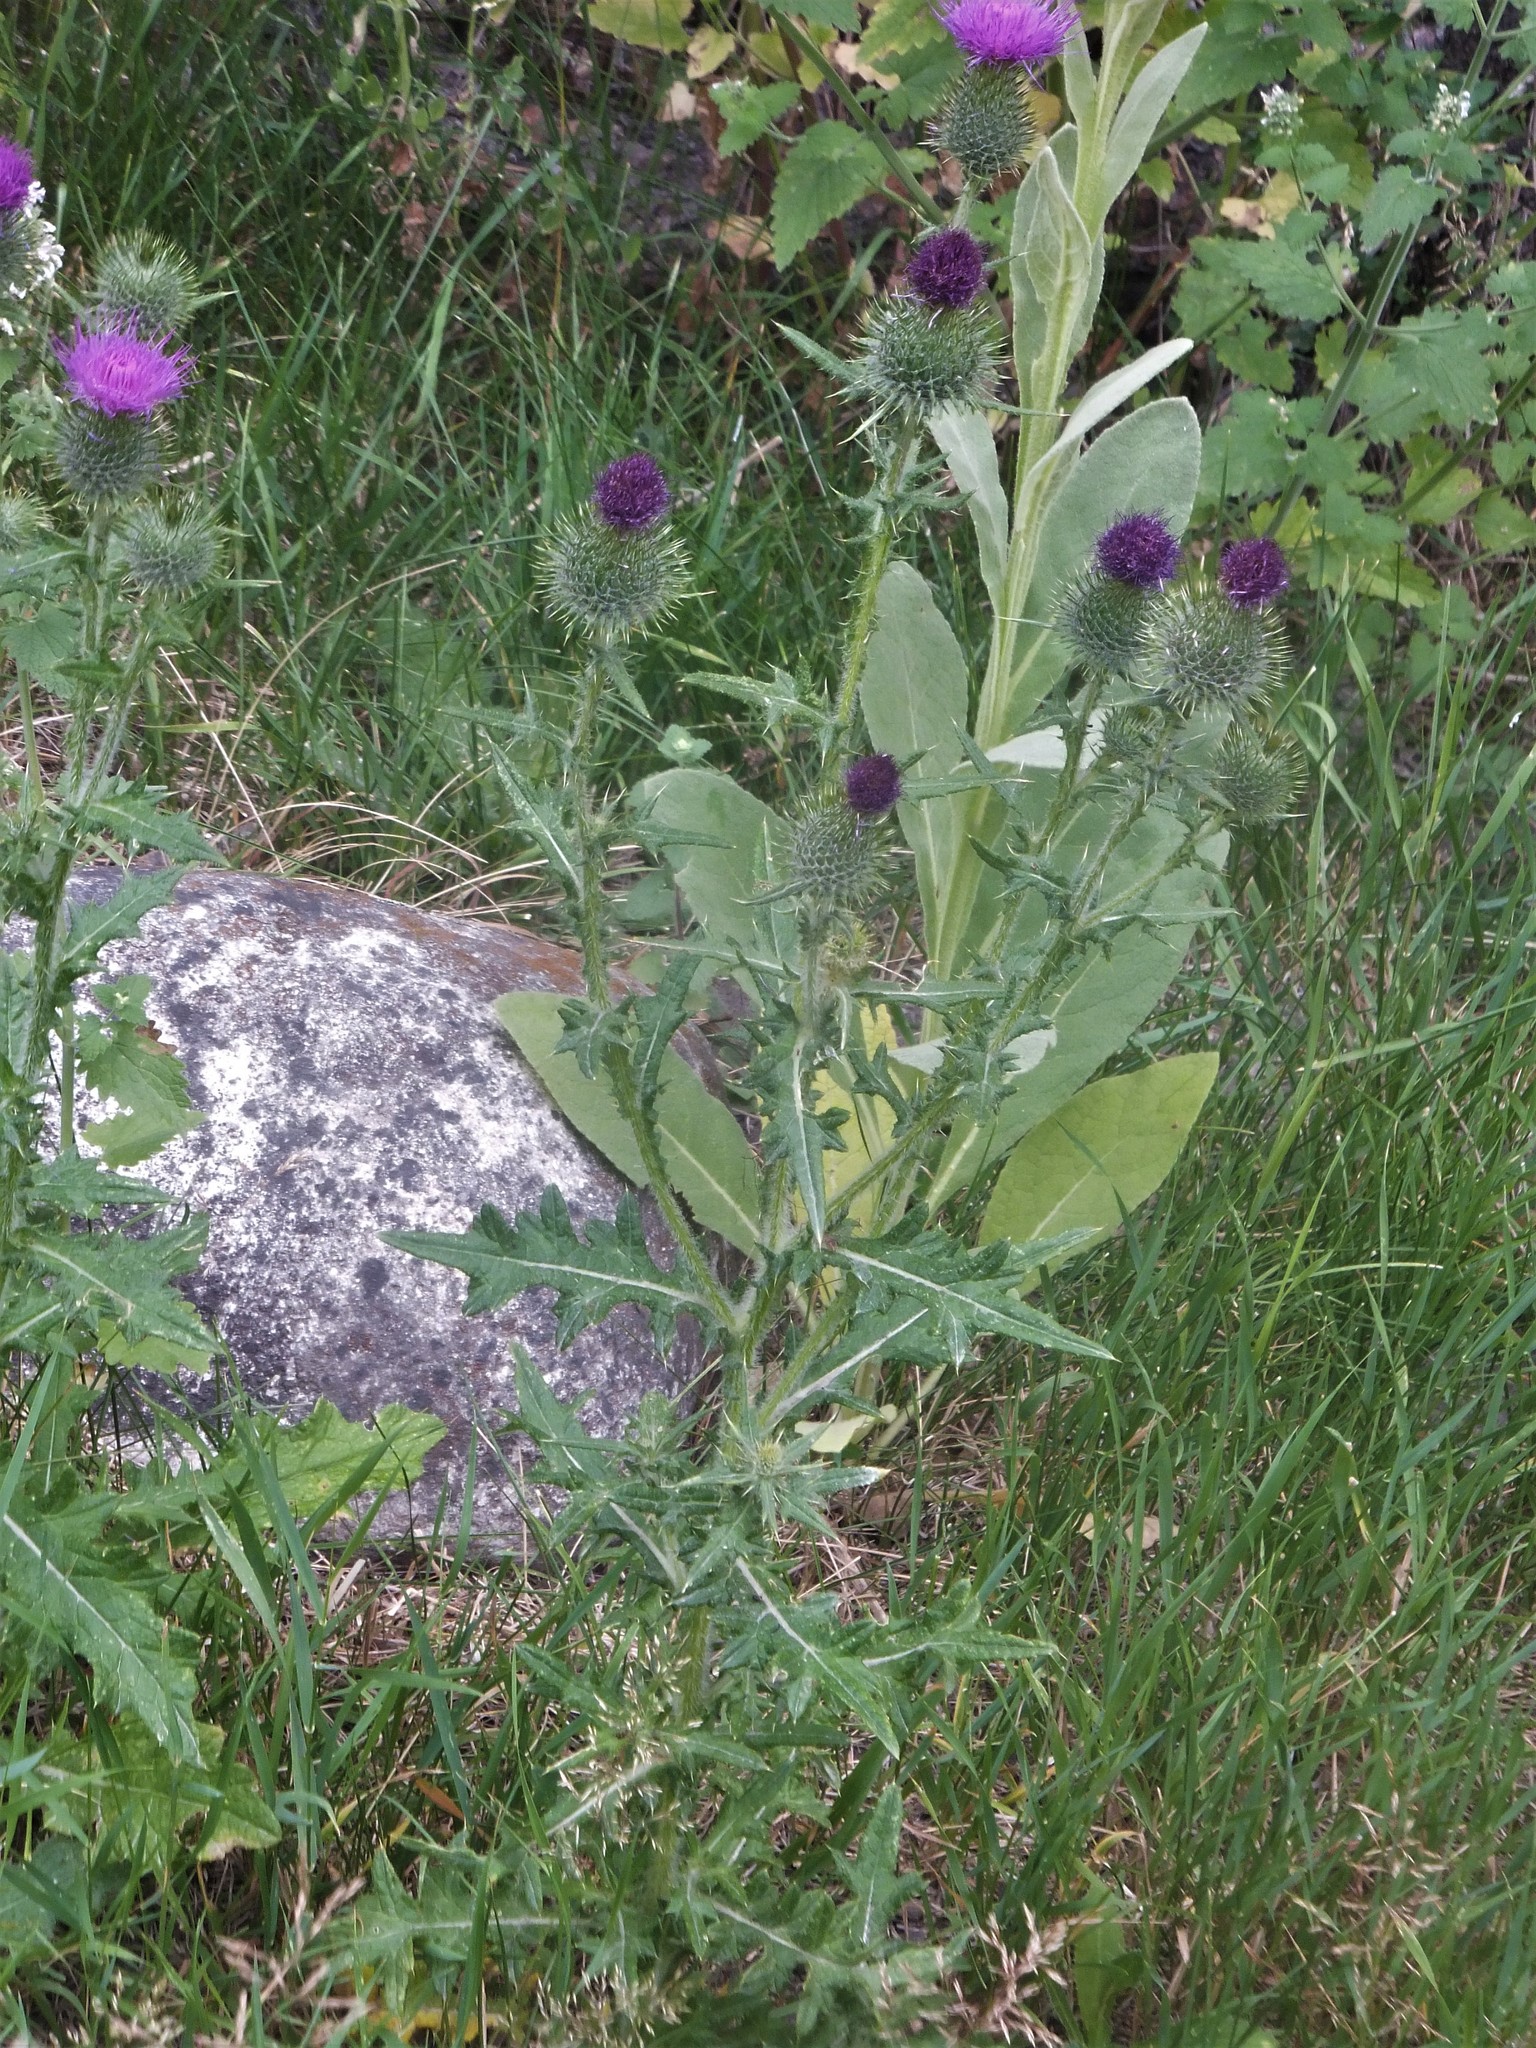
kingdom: Plantae
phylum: Tracheophyta
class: Magnoliopsida
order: Asterales
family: Asteraceae
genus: Cirsium
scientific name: Cirsium vulgare
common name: Bull thistle
